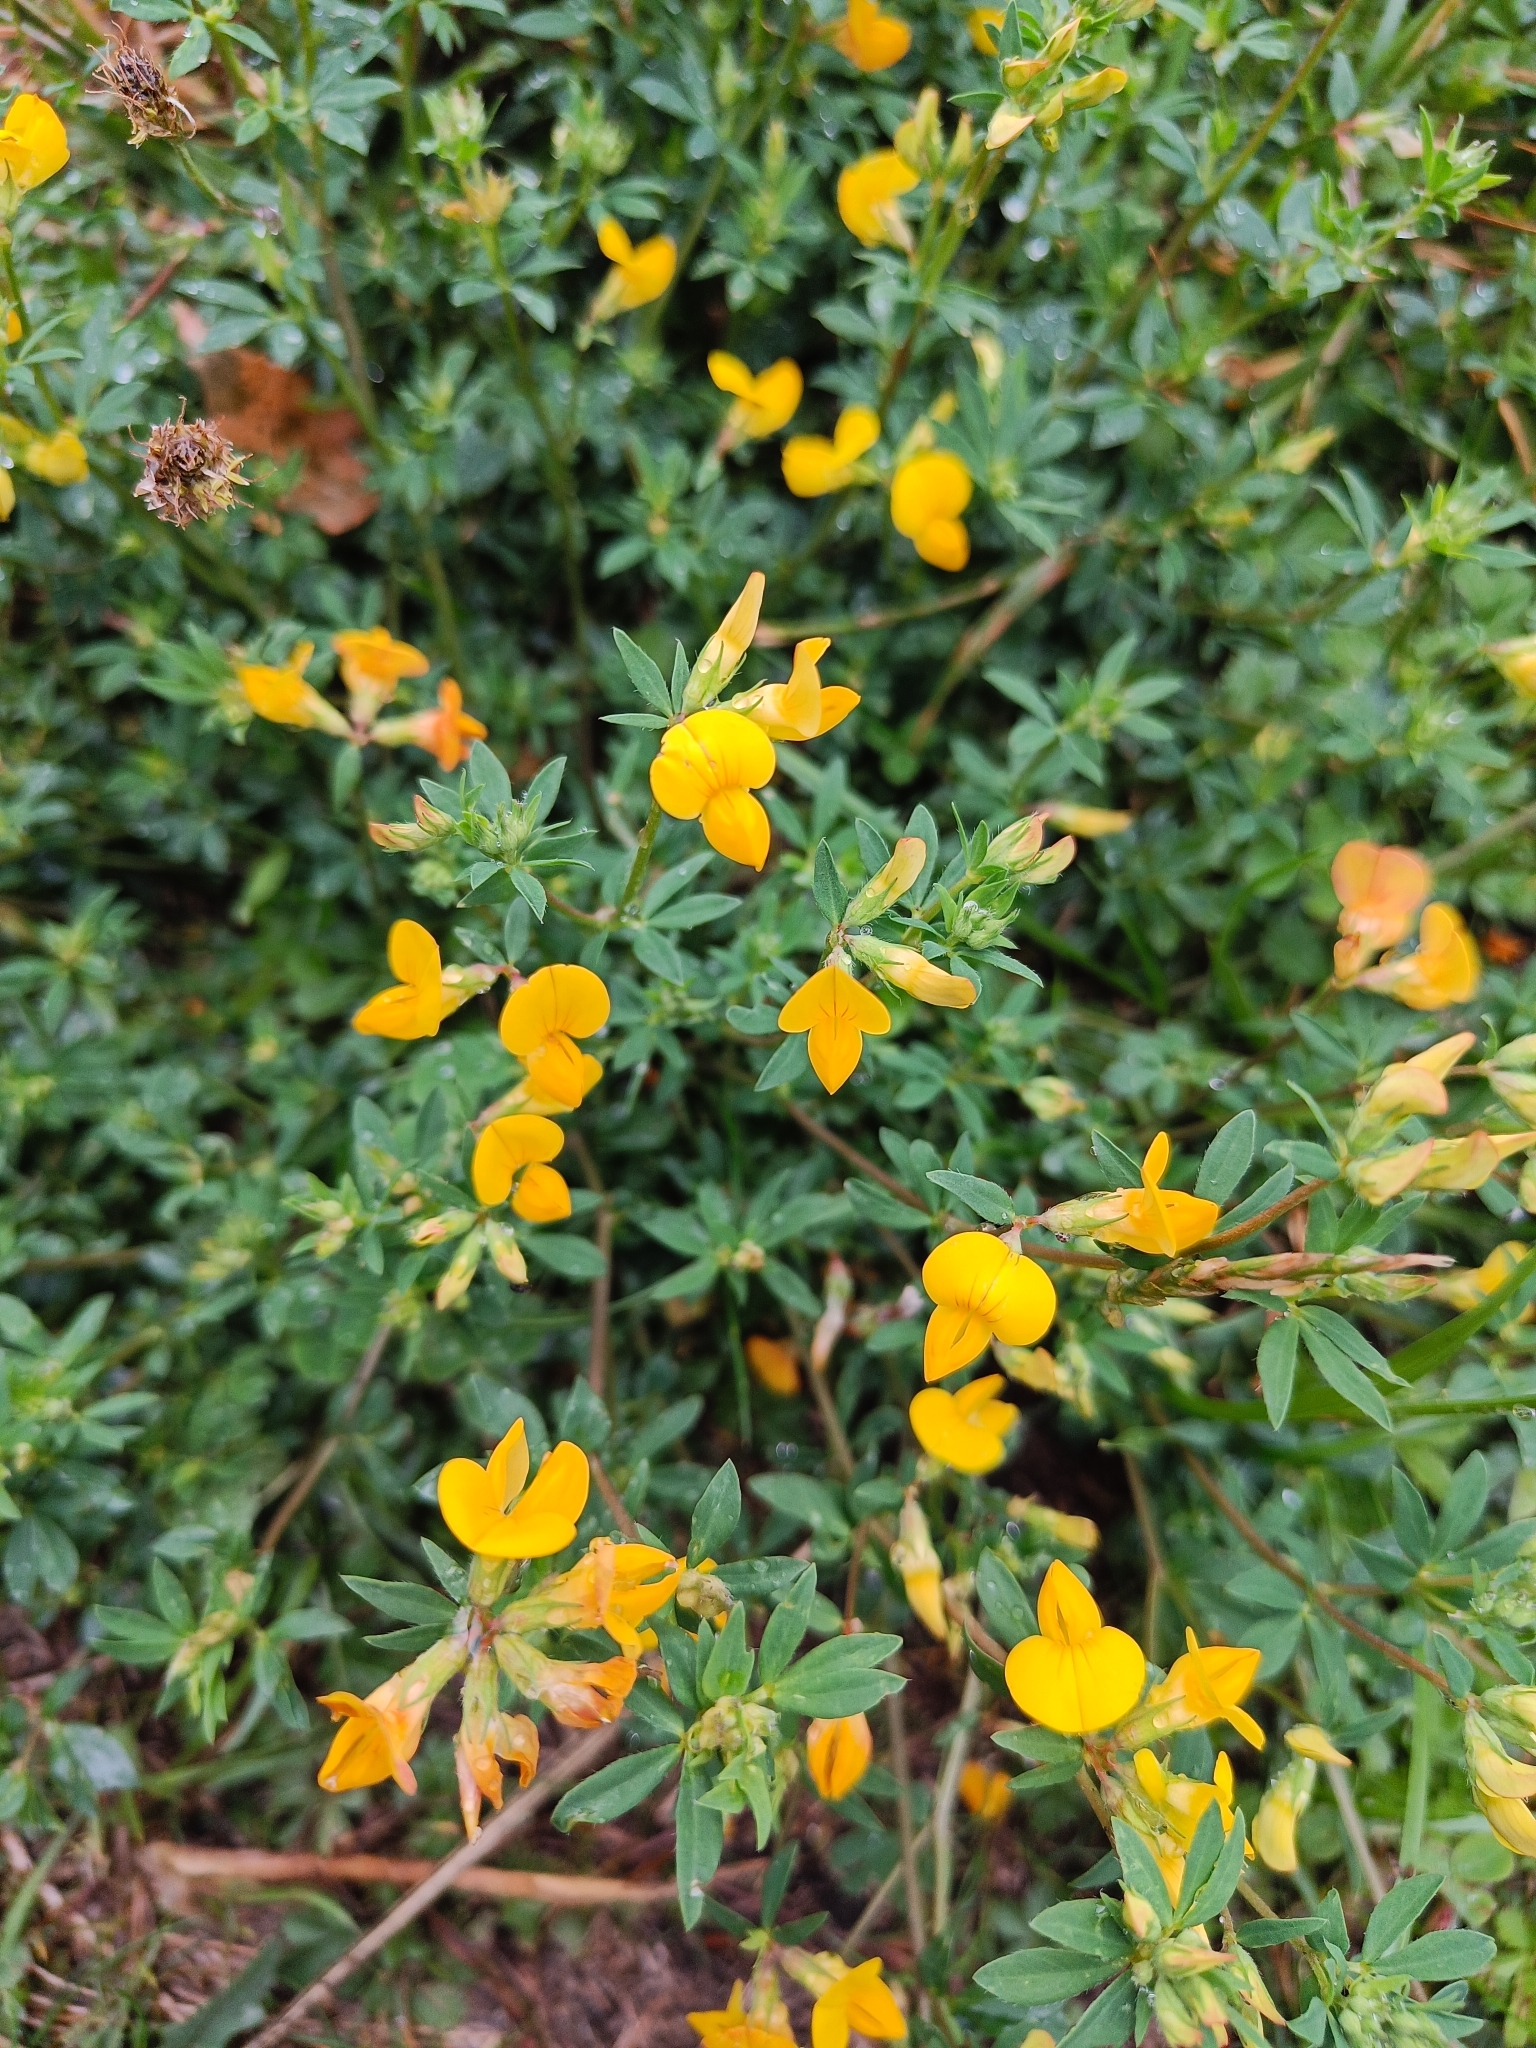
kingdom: Plantae
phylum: Tracheophyta
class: Magnoliopsida
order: Fabales
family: Fabaceae
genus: Lotus
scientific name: Lotus corniculatus
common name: Common bird's-foot-trefoil
